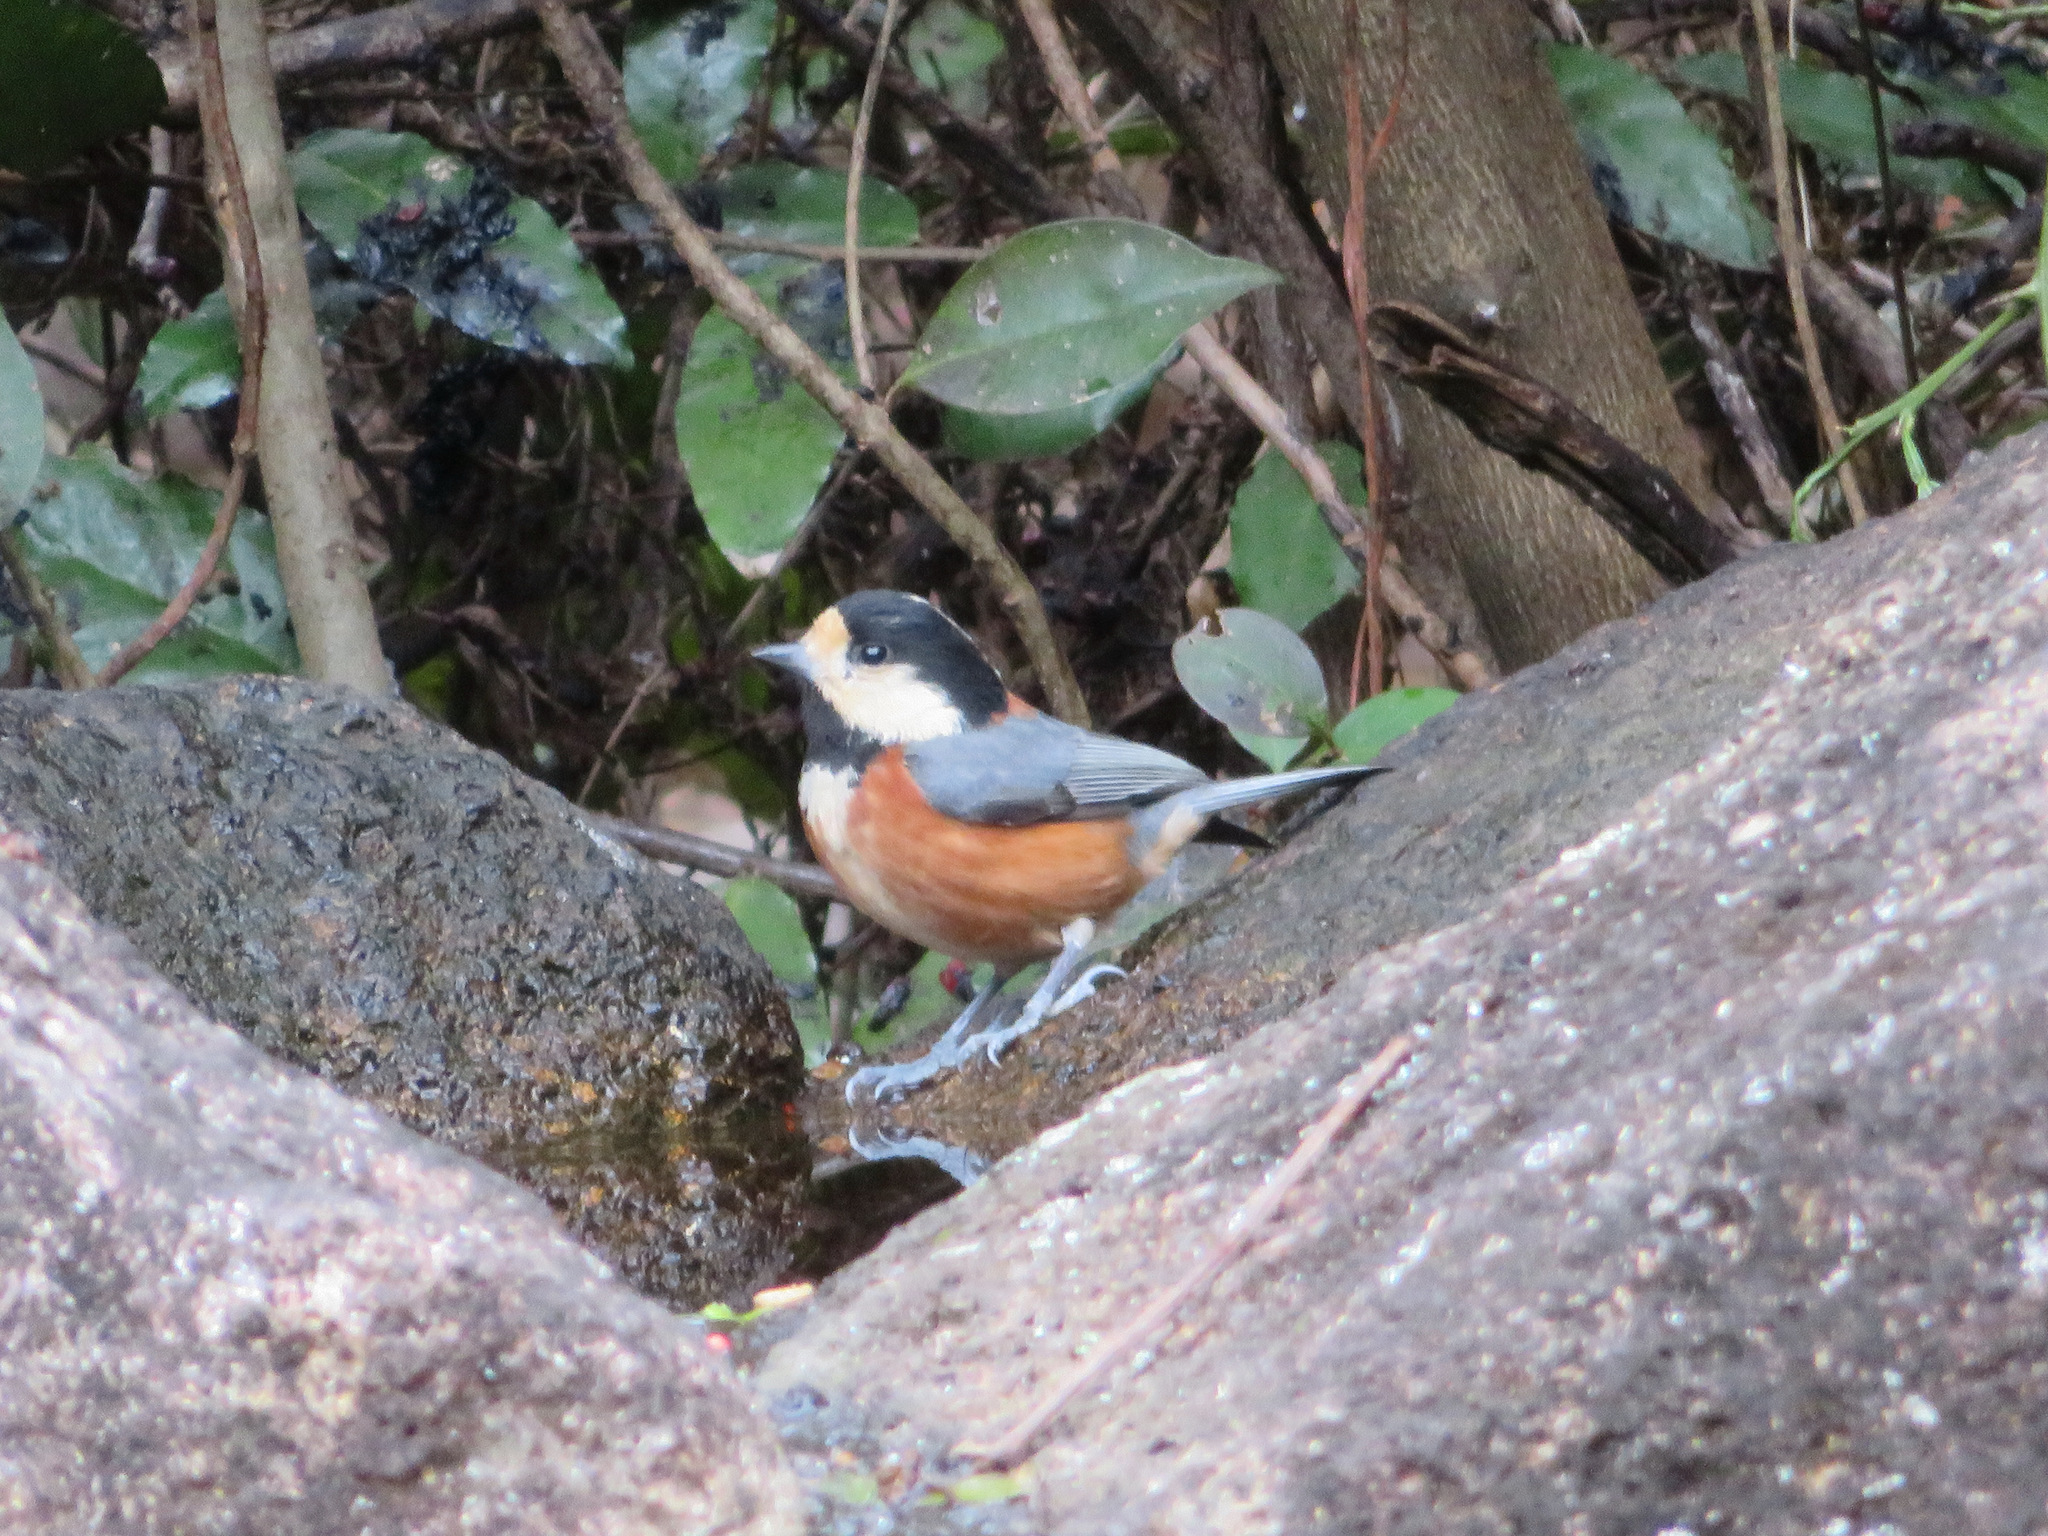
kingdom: Animalia
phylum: Chordata
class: Aves
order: Passeriformes
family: Paridae
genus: Poecile
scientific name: Poecile varius
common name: Varied tit
